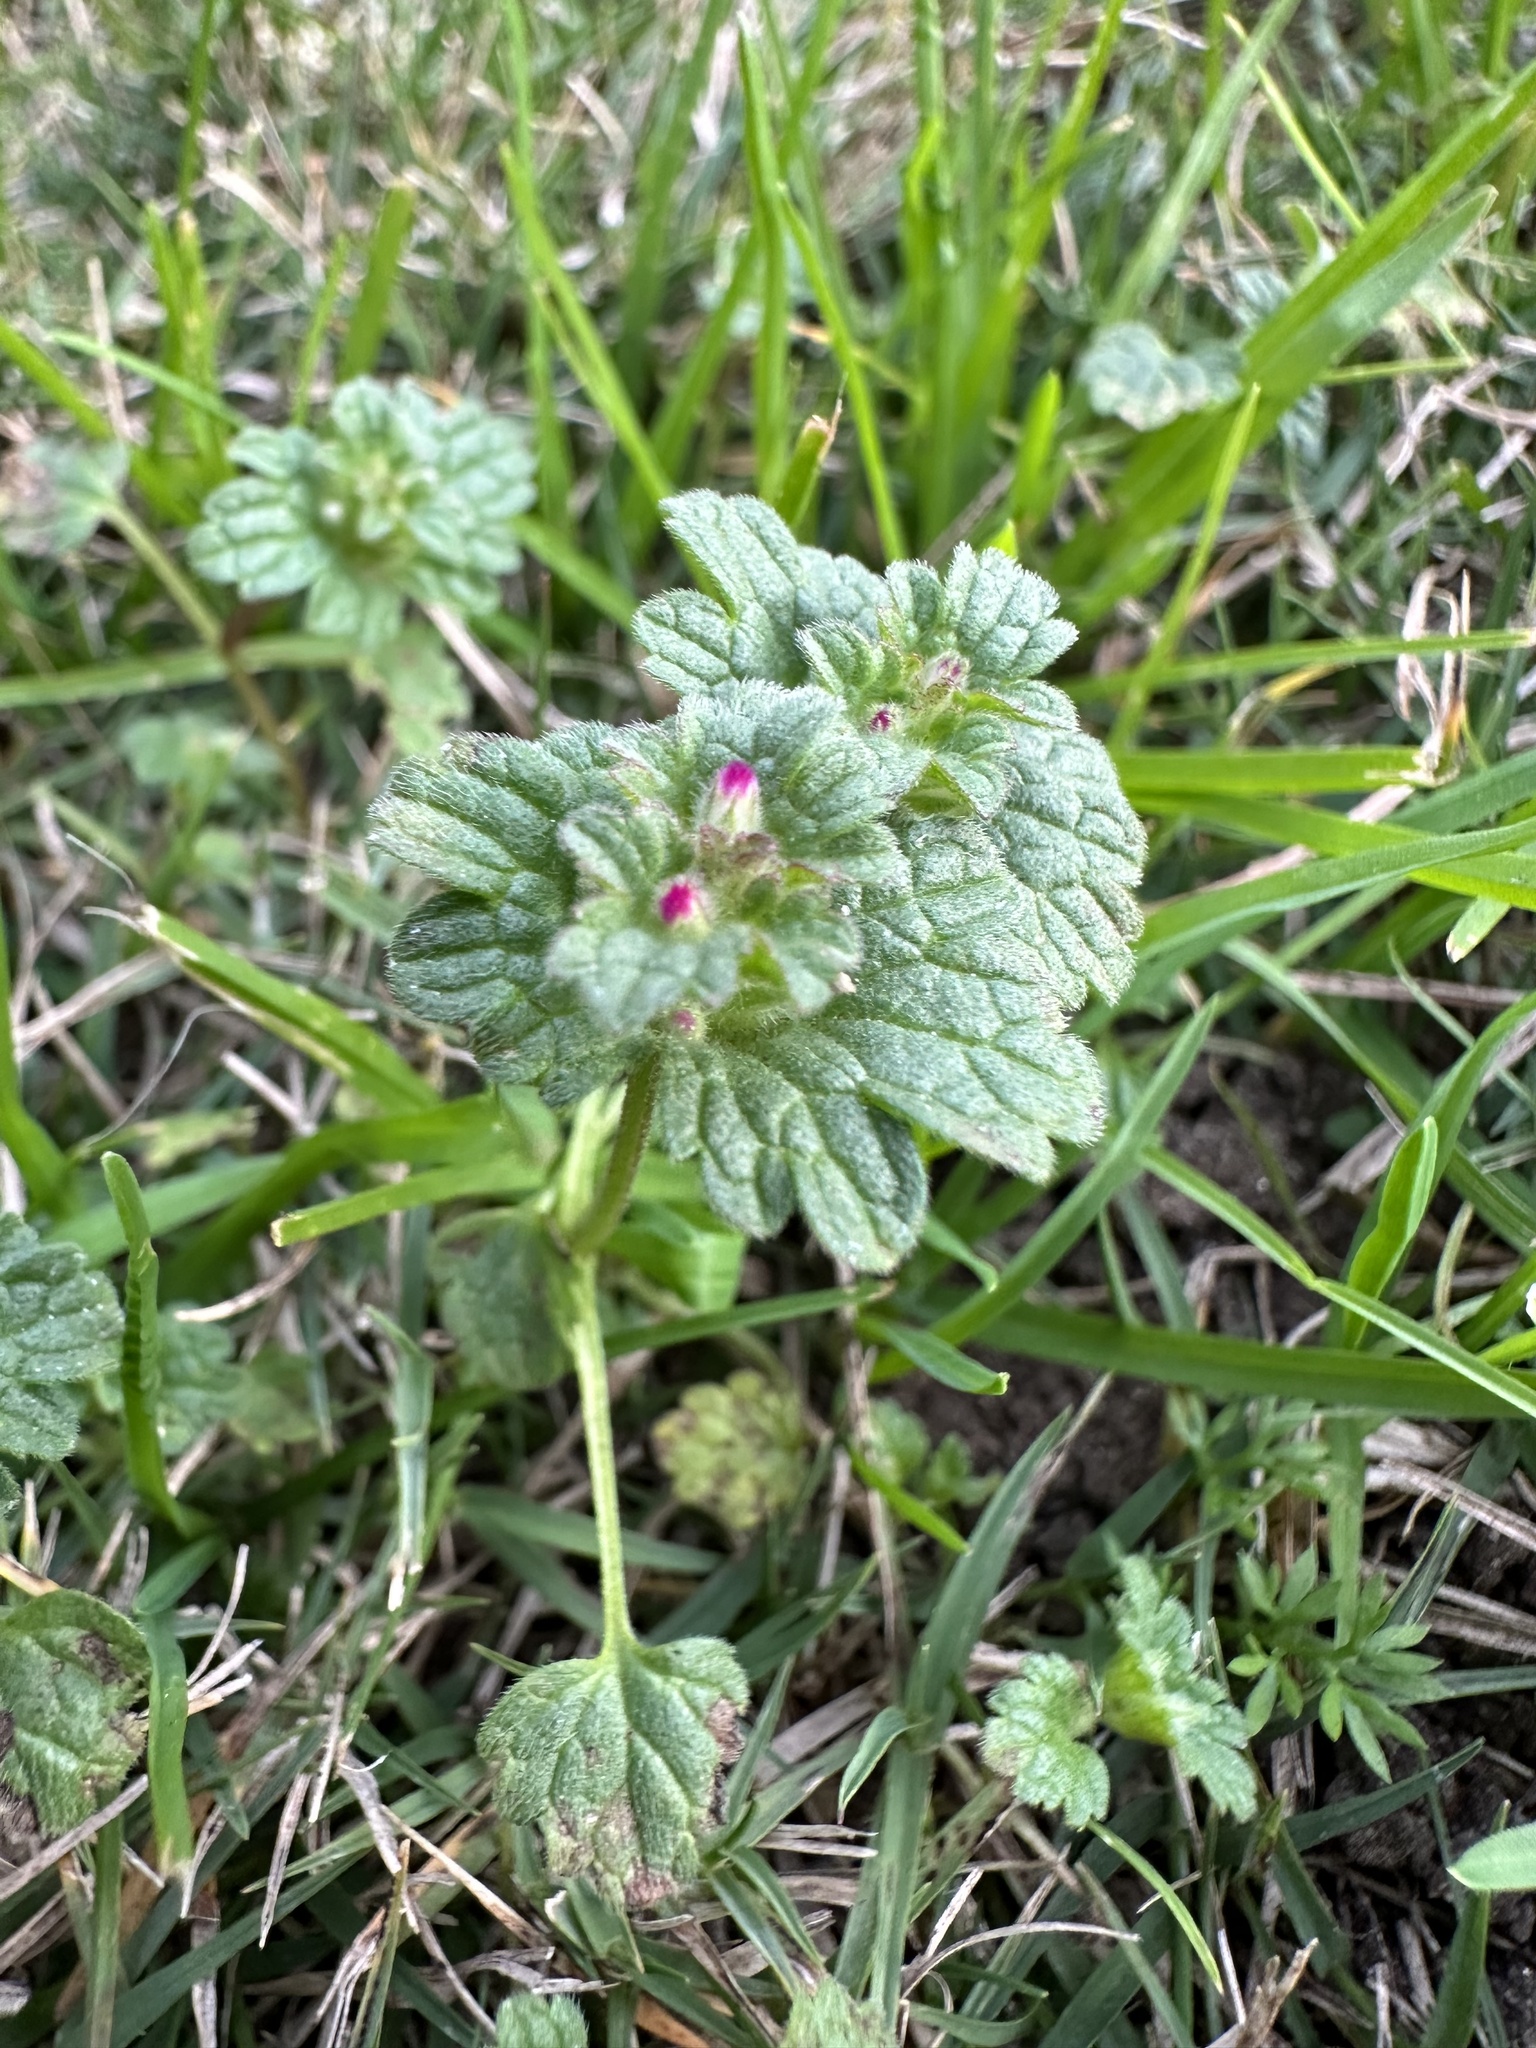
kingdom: Plantae
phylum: Tracheophyta
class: Magnoliopsida
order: Lamiales
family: Lamiaceae
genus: Lamium
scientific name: Lamium amplexicaule
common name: Henbit dead-nettle
